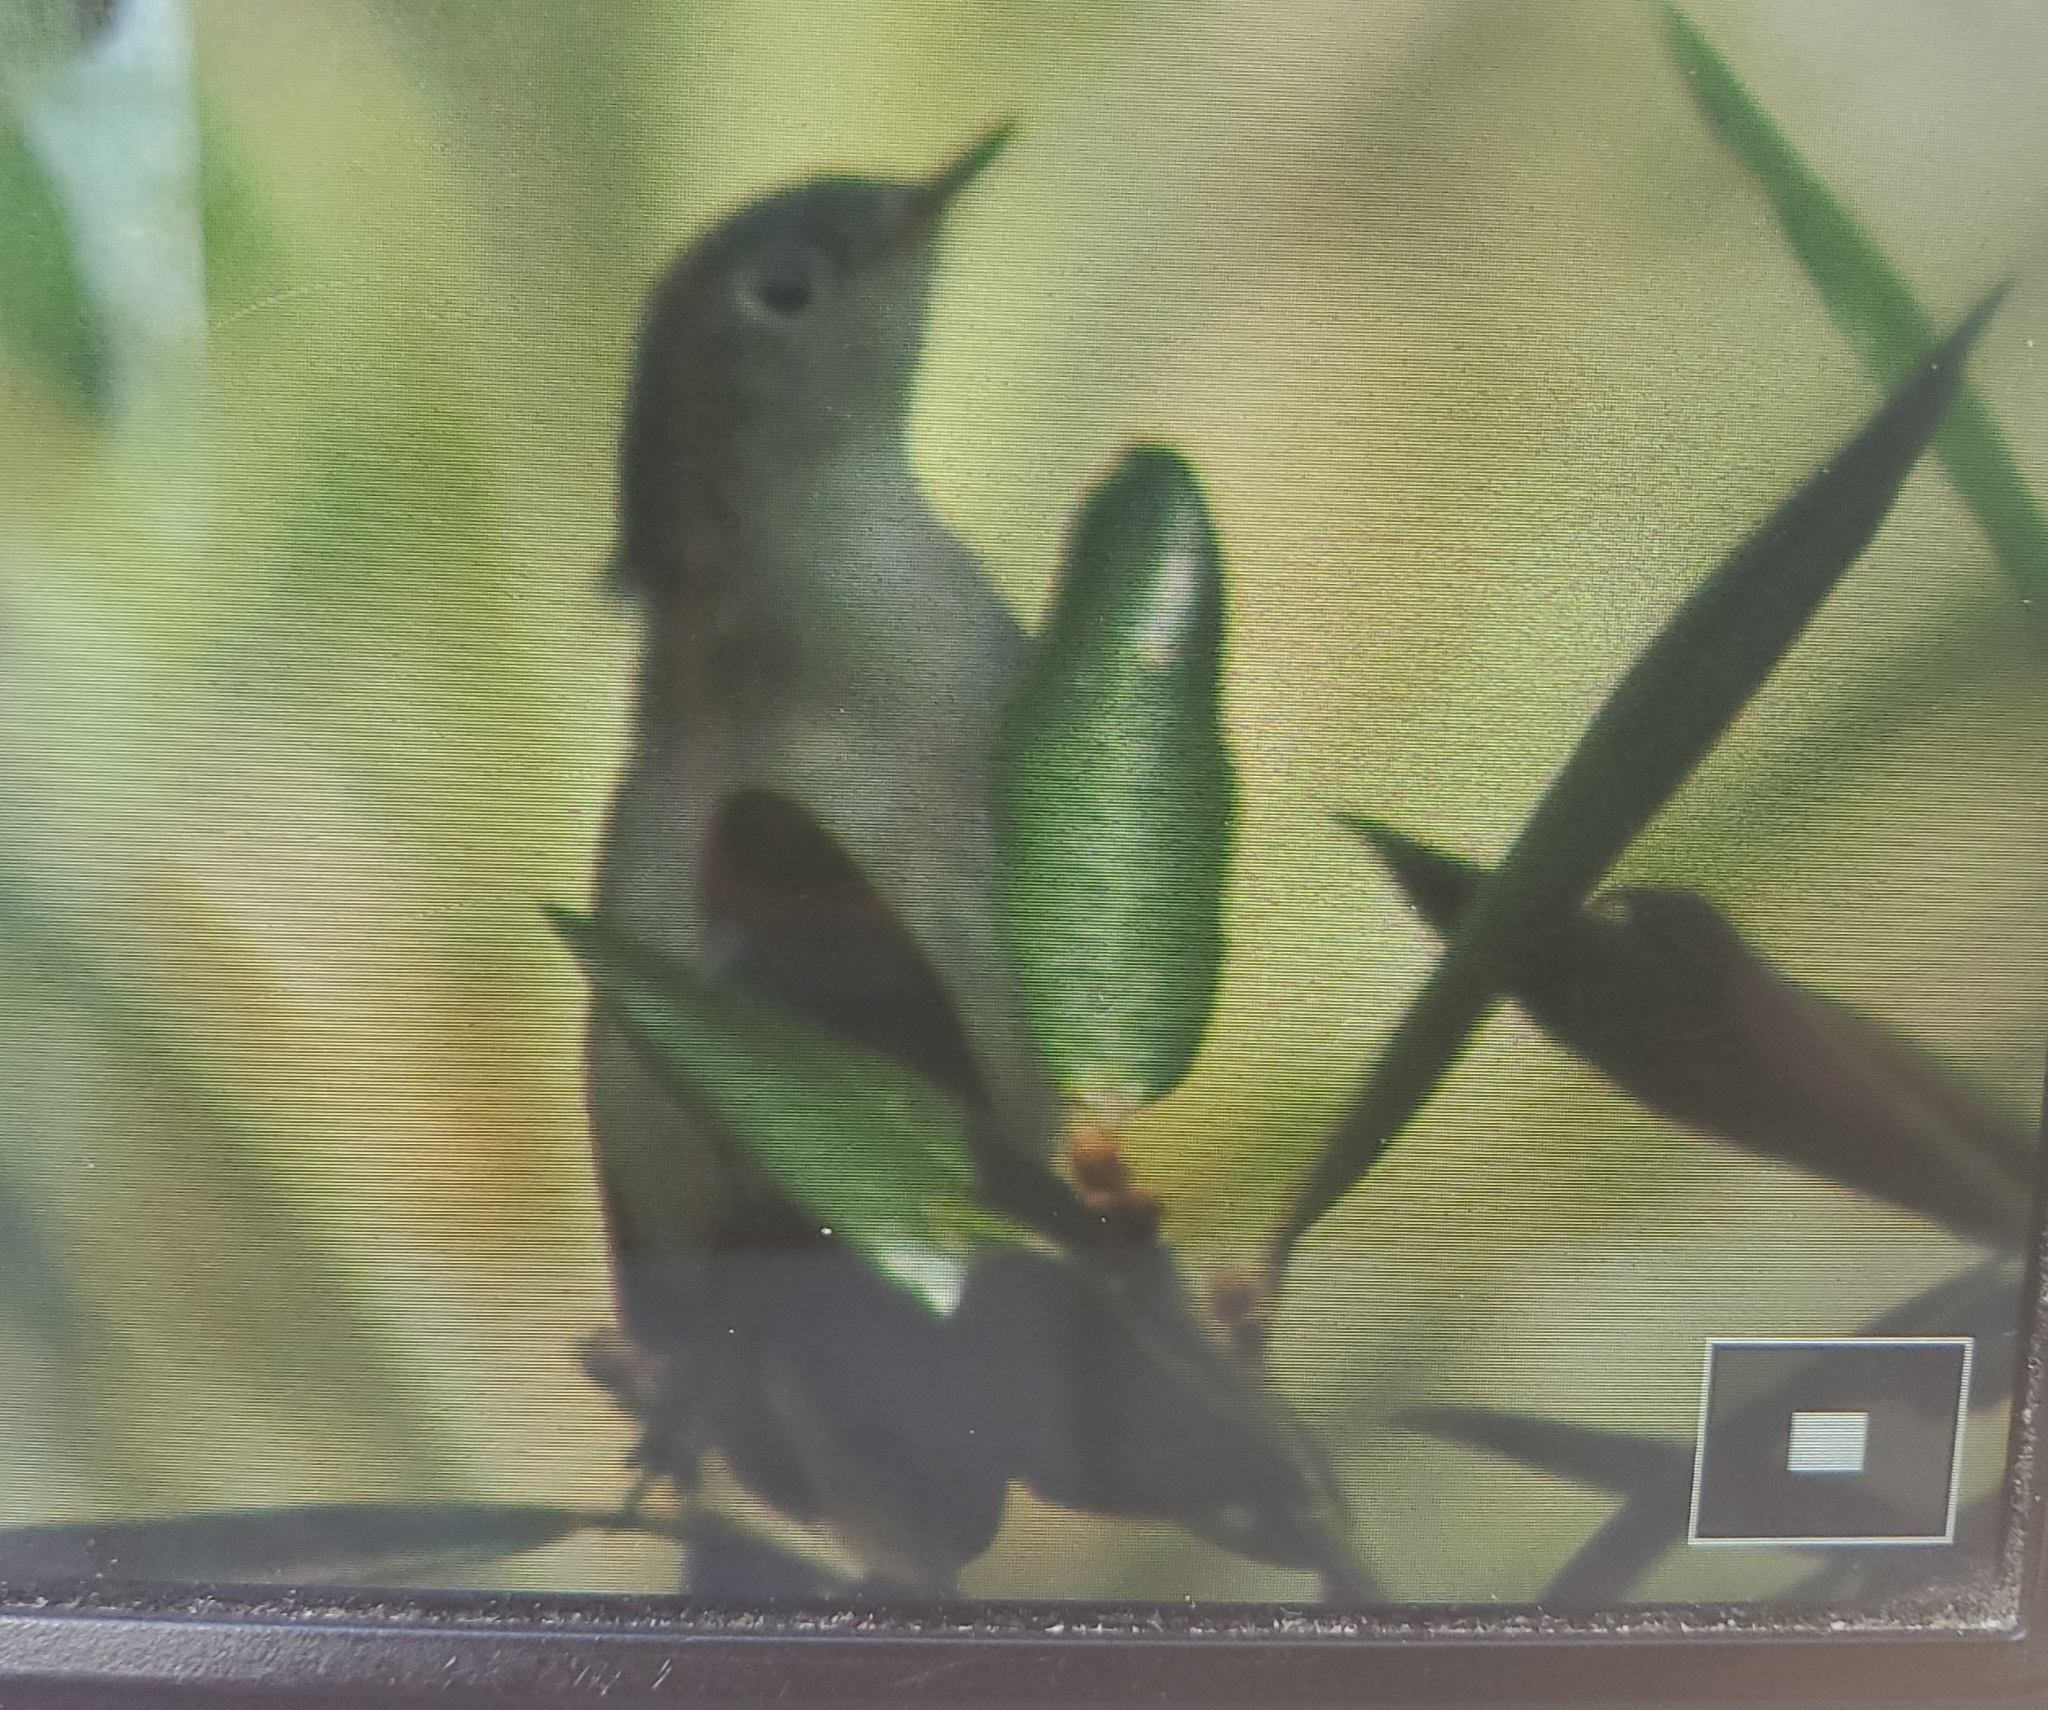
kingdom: Animalia
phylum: Chordata
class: Aves
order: Passeriformes
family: Polioptilidae
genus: Polioptila
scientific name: Polioptila caerulea
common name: Blue-gray gnatcatcher
